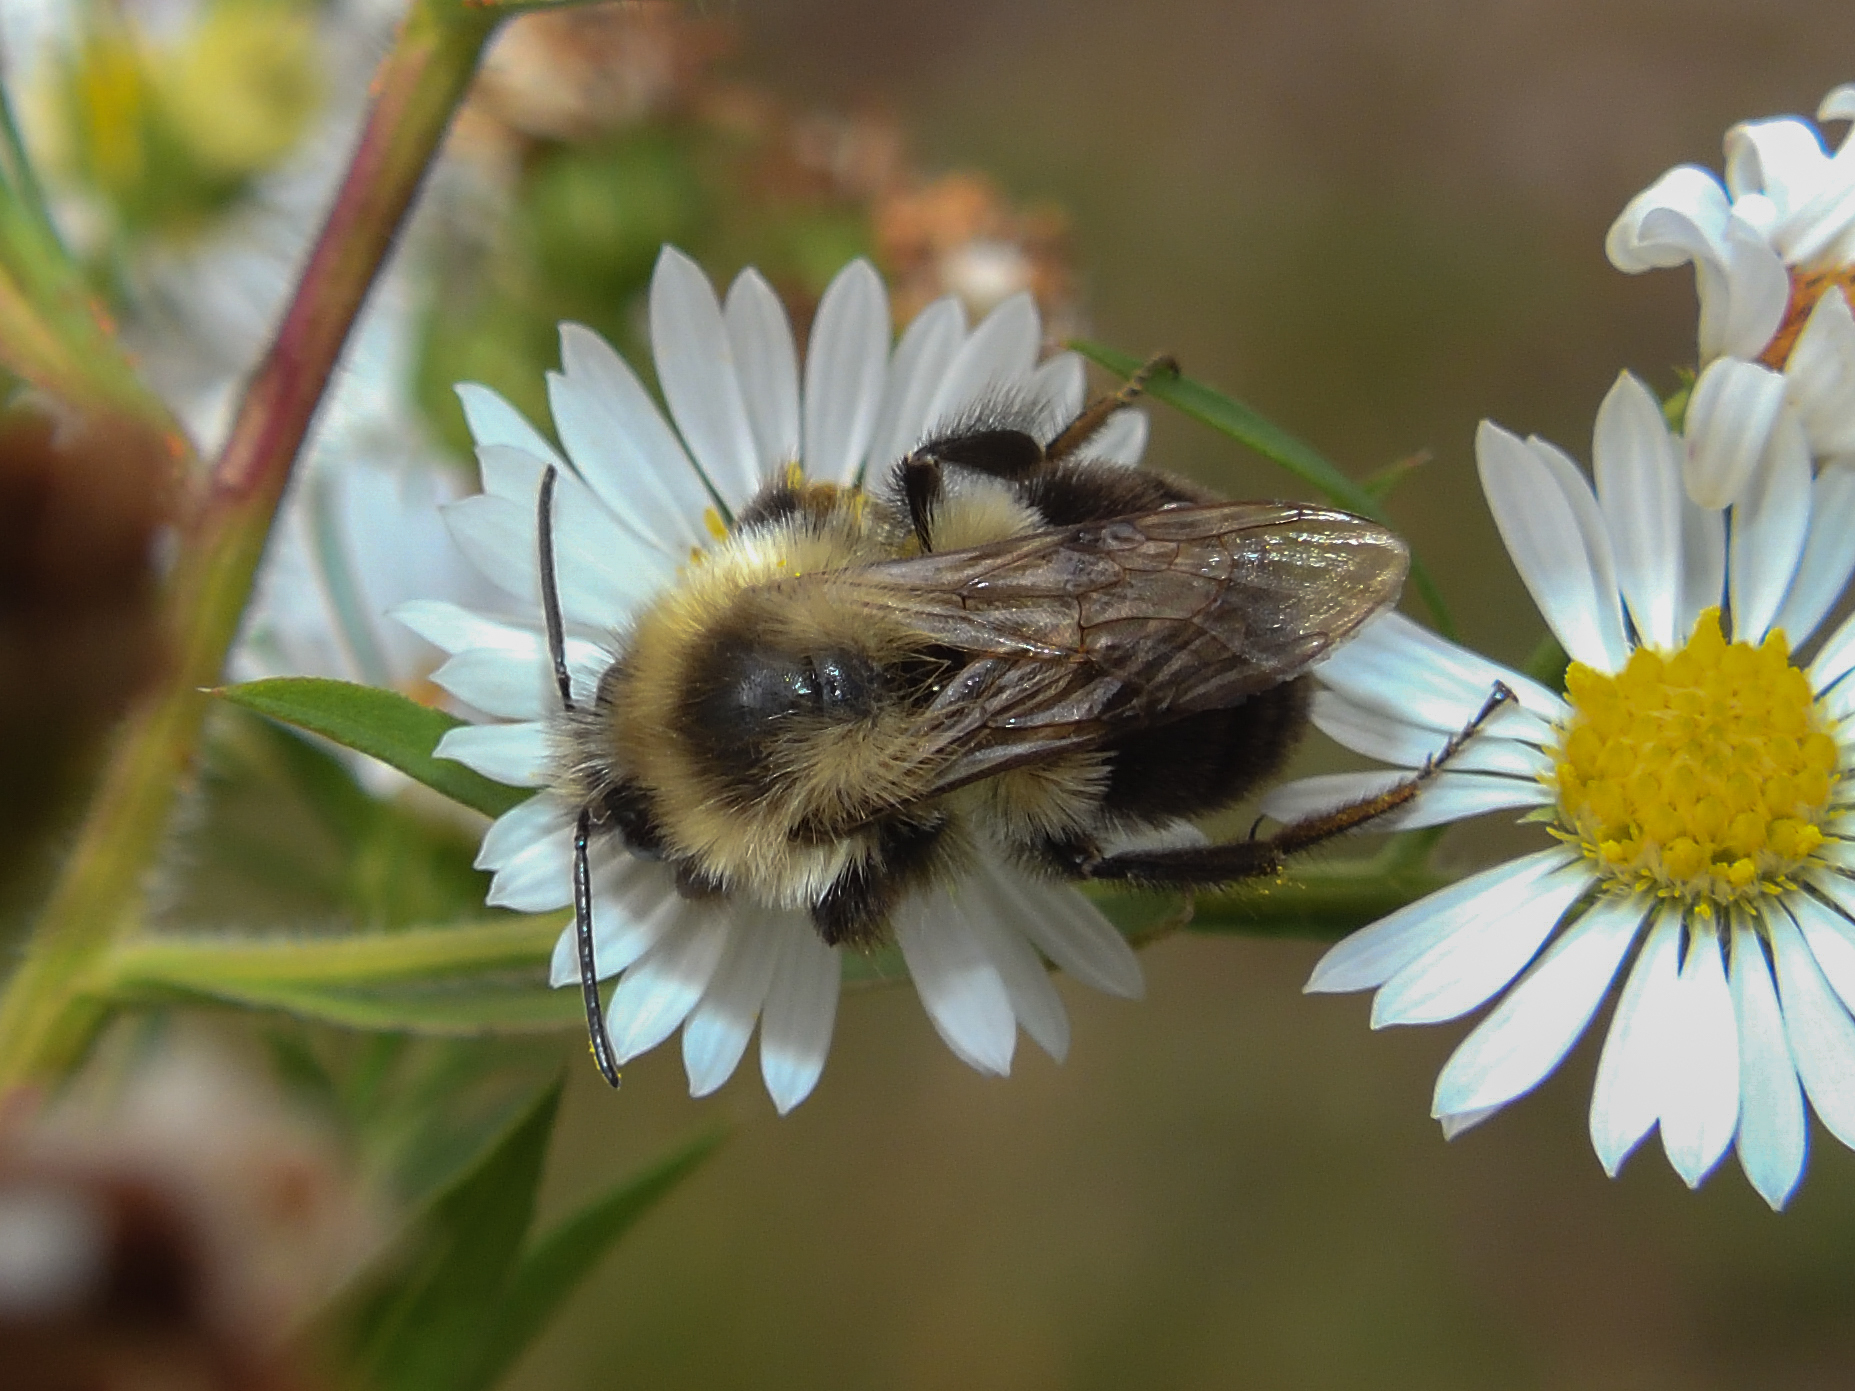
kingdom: Animalia
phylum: Arthropoda
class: Insecta
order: Hymenoptera
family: Apidae
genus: Bombus
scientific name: Bombus impatiens
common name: Common eastern bumble bee
